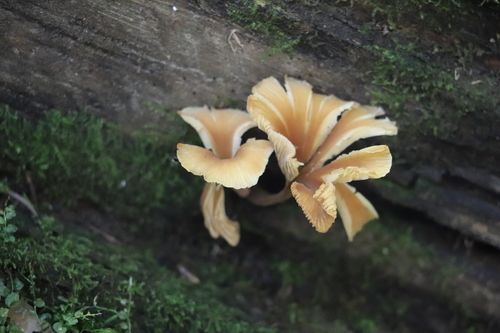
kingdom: Fungi
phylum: Basidiomycota
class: Agaricomycetes
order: Agaricales
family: Marasmiaceae
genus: Clitocybula
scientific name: Clitocybula
